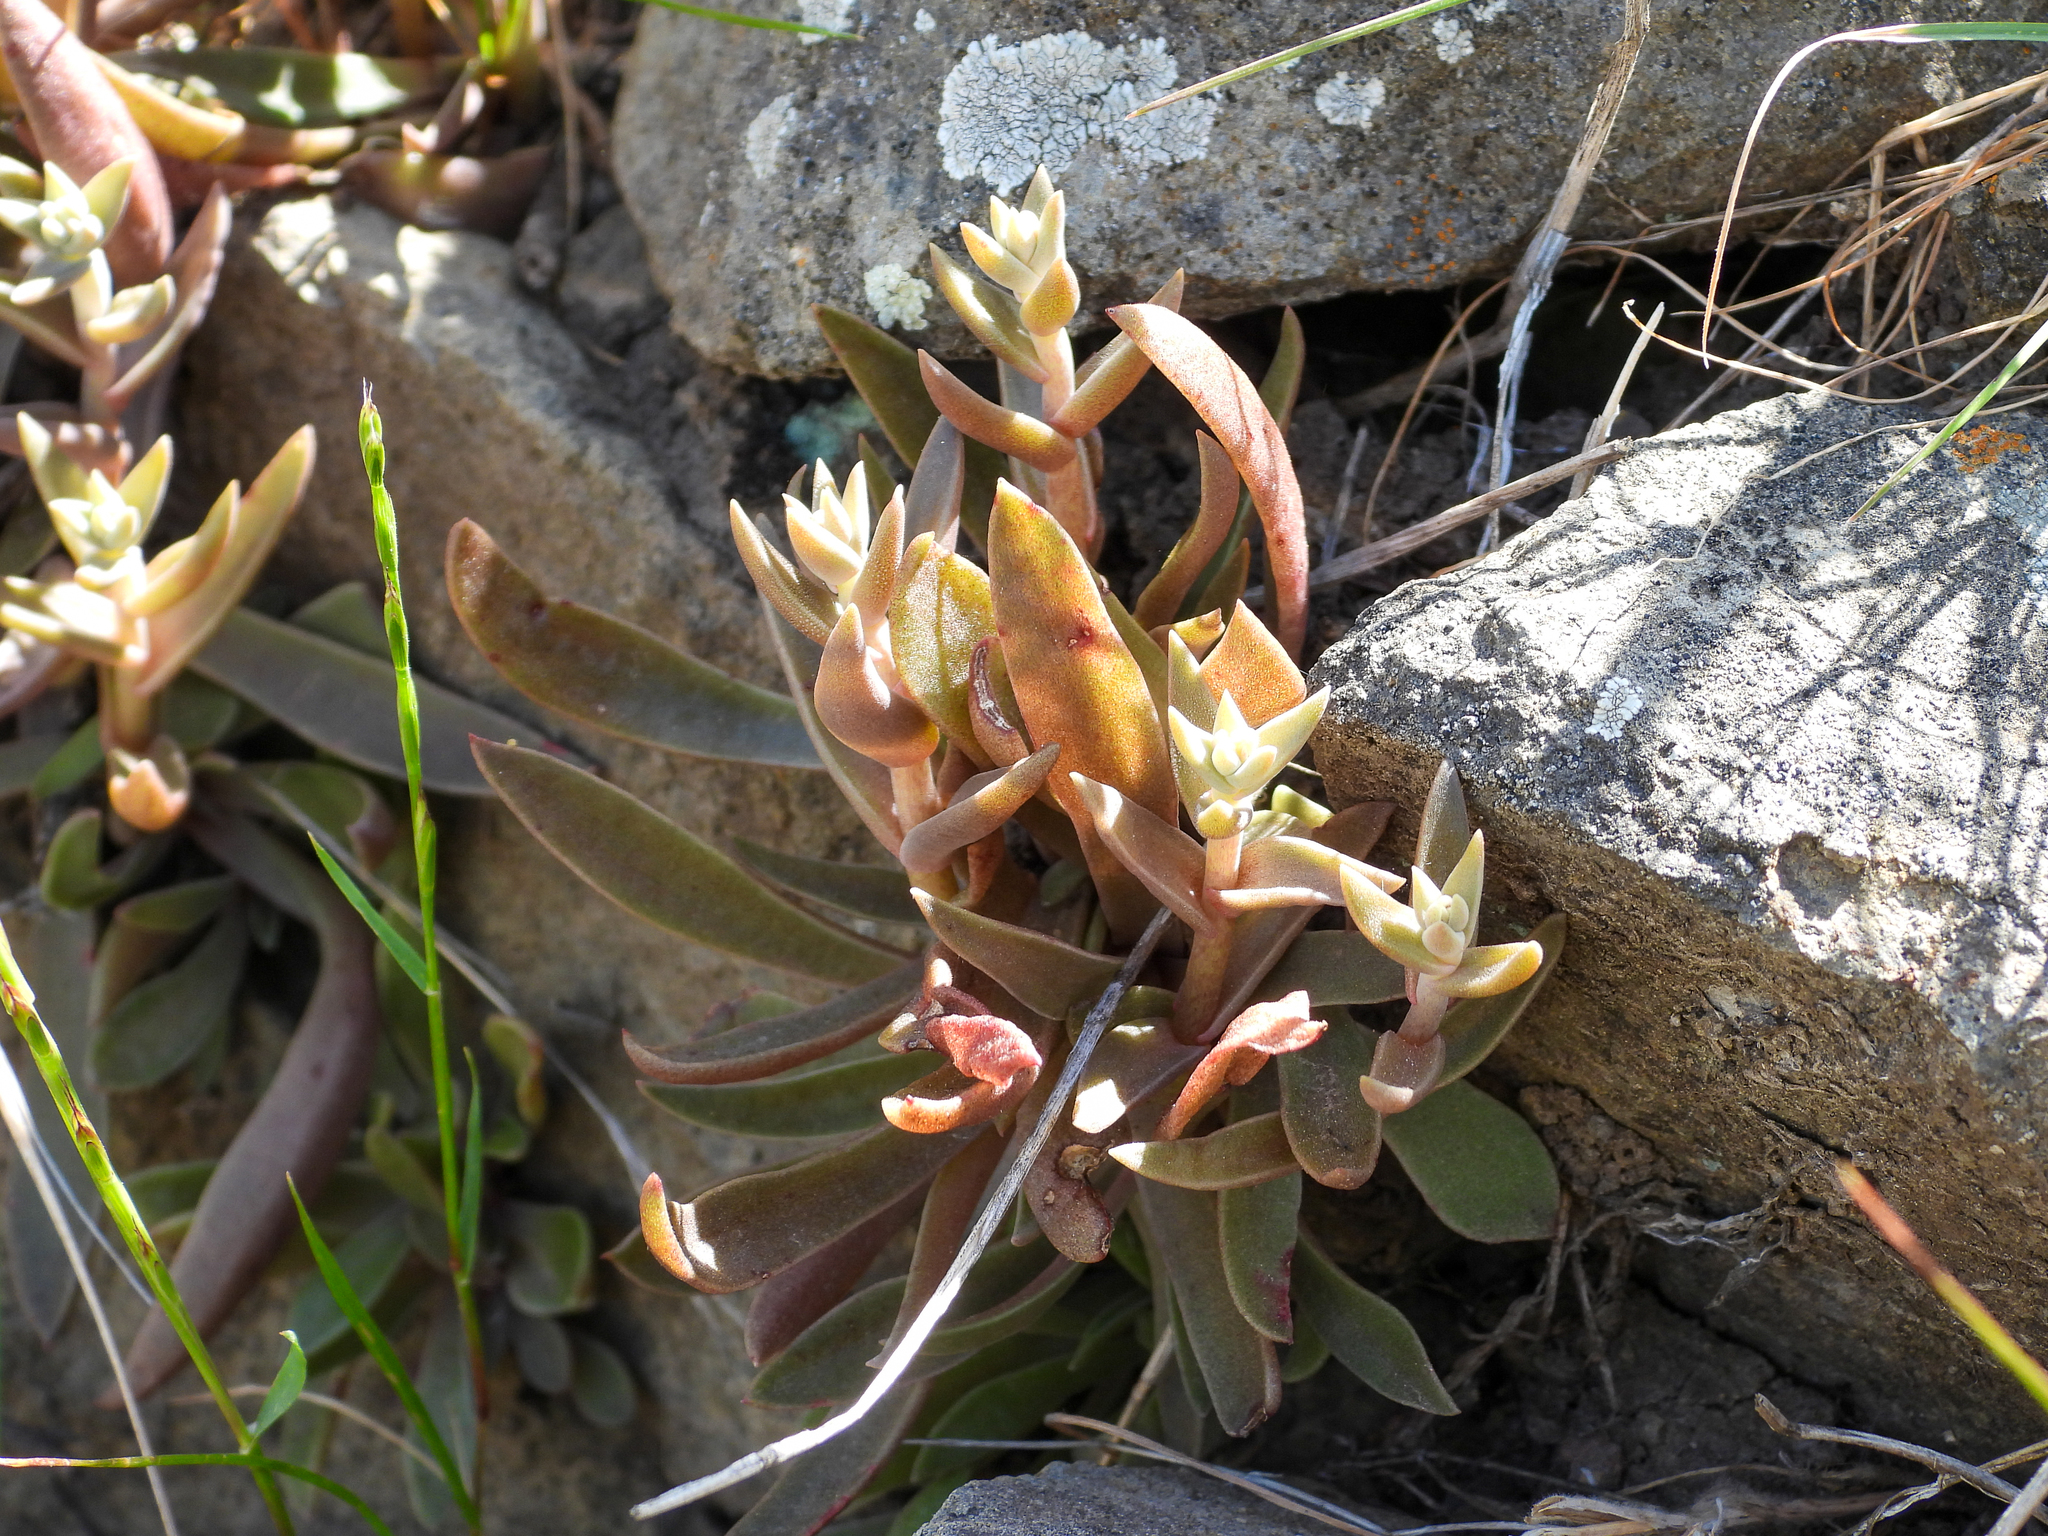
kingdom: Plantae
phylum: Tracheophyta
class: Magnoliopsida
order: Saxifragales
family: Crassulaceae
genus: Dudleya
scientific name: Dudleya parva
